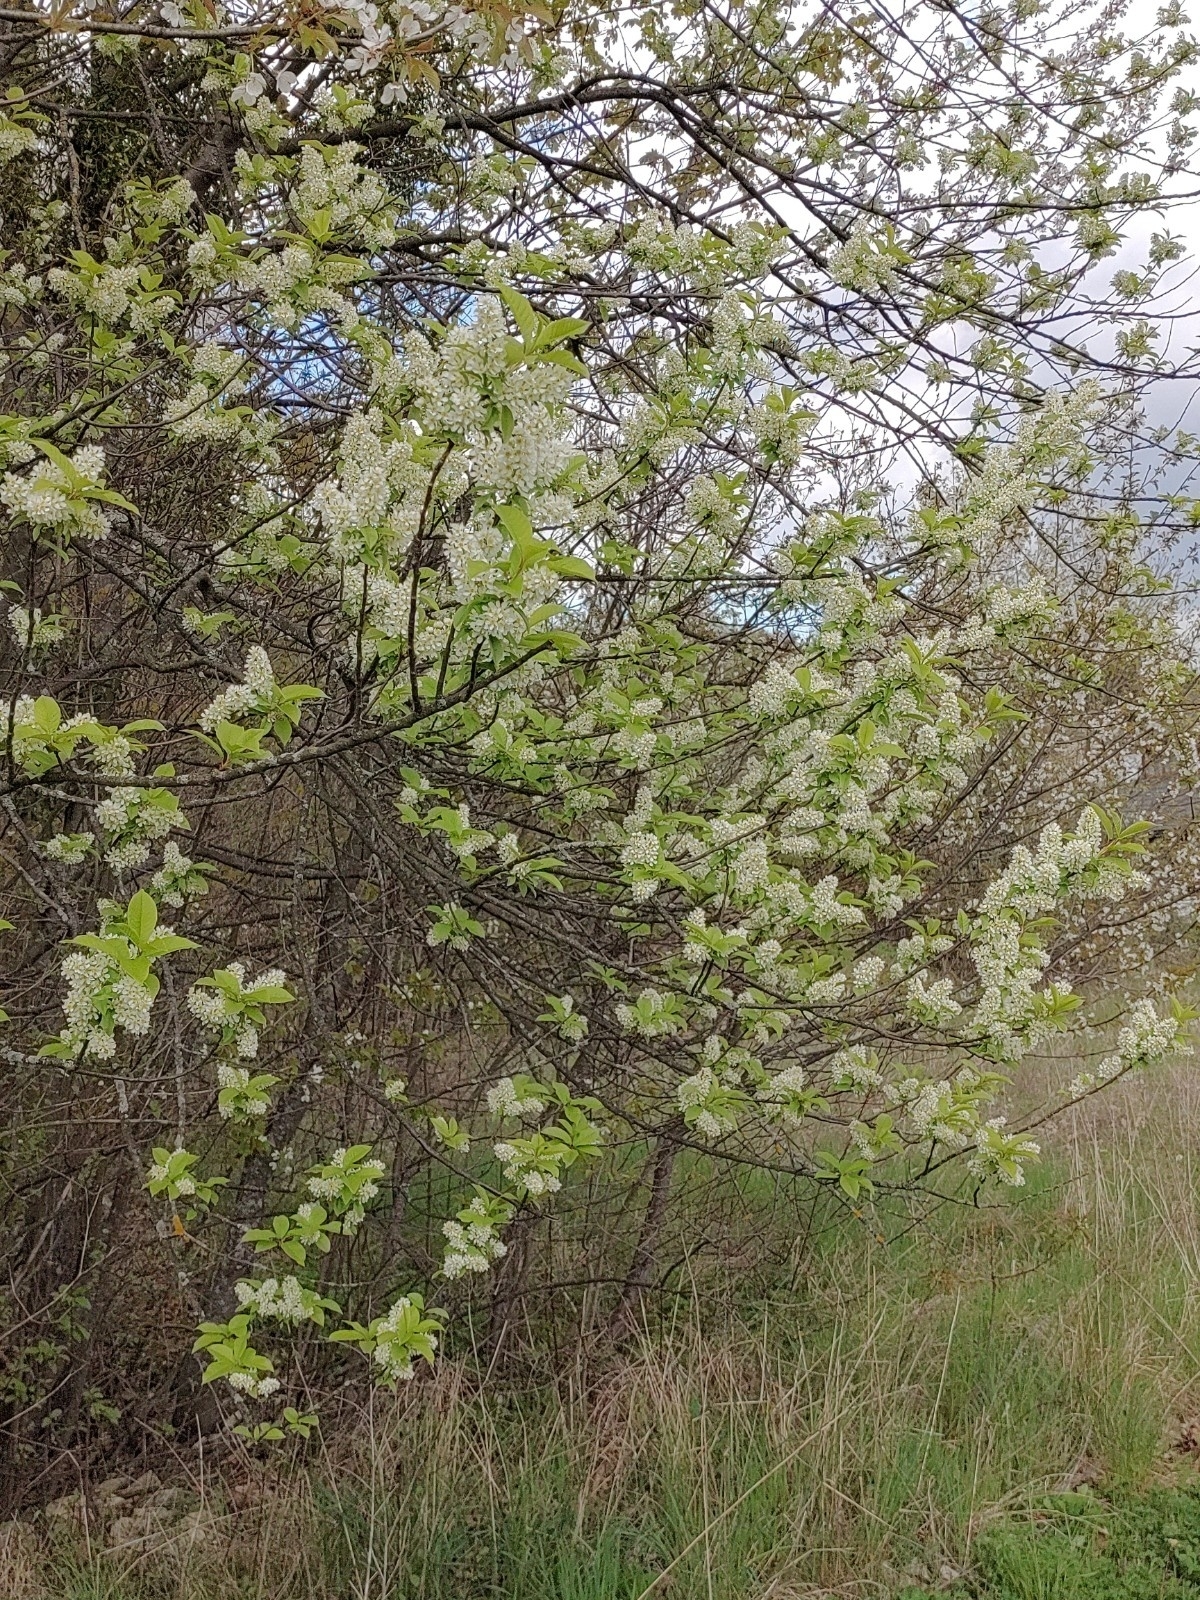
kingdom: Plantae
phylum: Tracheophyta
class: Magnoliopsida
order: Rosales
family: Rosaceae
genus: Prunus
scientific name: Prunus padus
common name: Bird cherry
